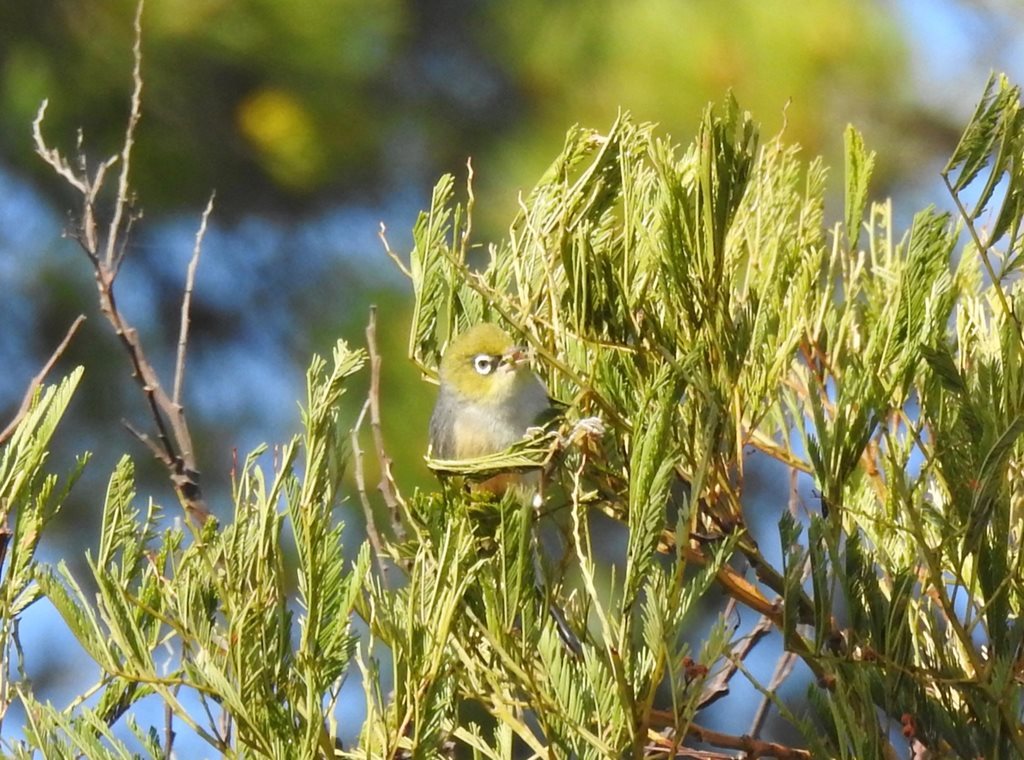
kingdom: Animalia
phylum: Chordata
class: Aves
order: Passeriformes
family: Zosteropidae
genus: Zosterops
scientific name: Zosterops lateralis
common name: Silvereye
